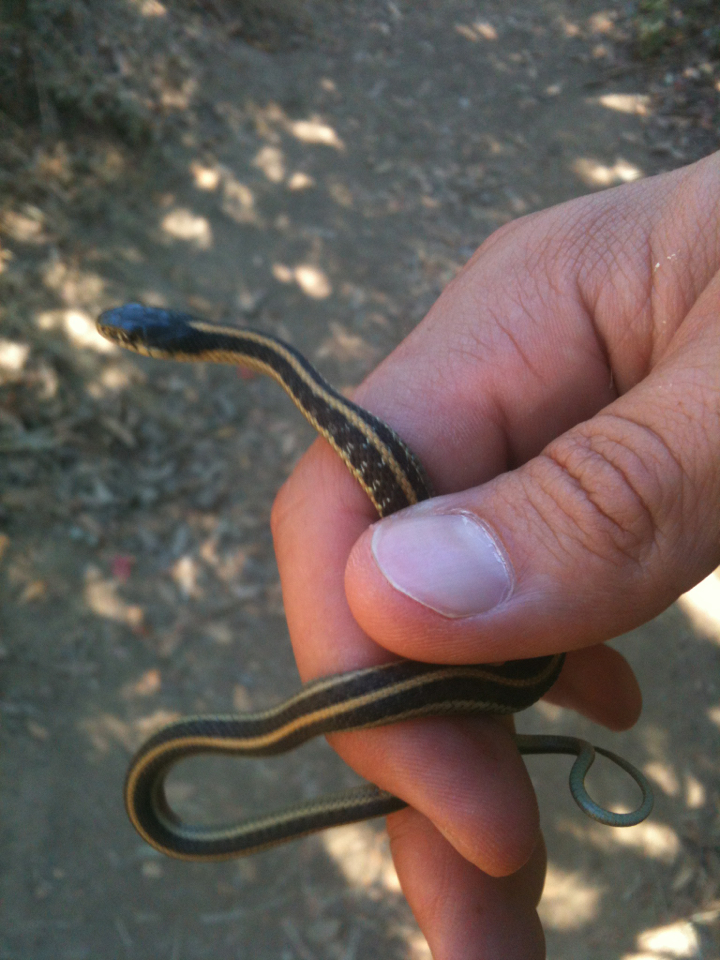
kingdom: Animalia
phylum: Chordata
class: Squamata
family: Colubridae
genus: Thamnophis
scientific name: Thamnophis elegans
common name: Western terrestrial garter snake
